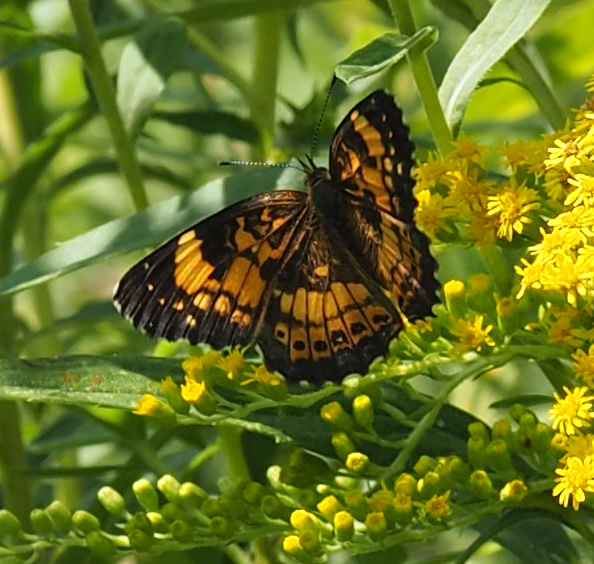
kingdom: Animalia
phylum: Arthropoda
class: Insecta
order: Lepidoptera
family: Nymphalidae
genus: Chlosyne
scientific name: Chlosyne nycteis
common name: Silvery checkerspot
